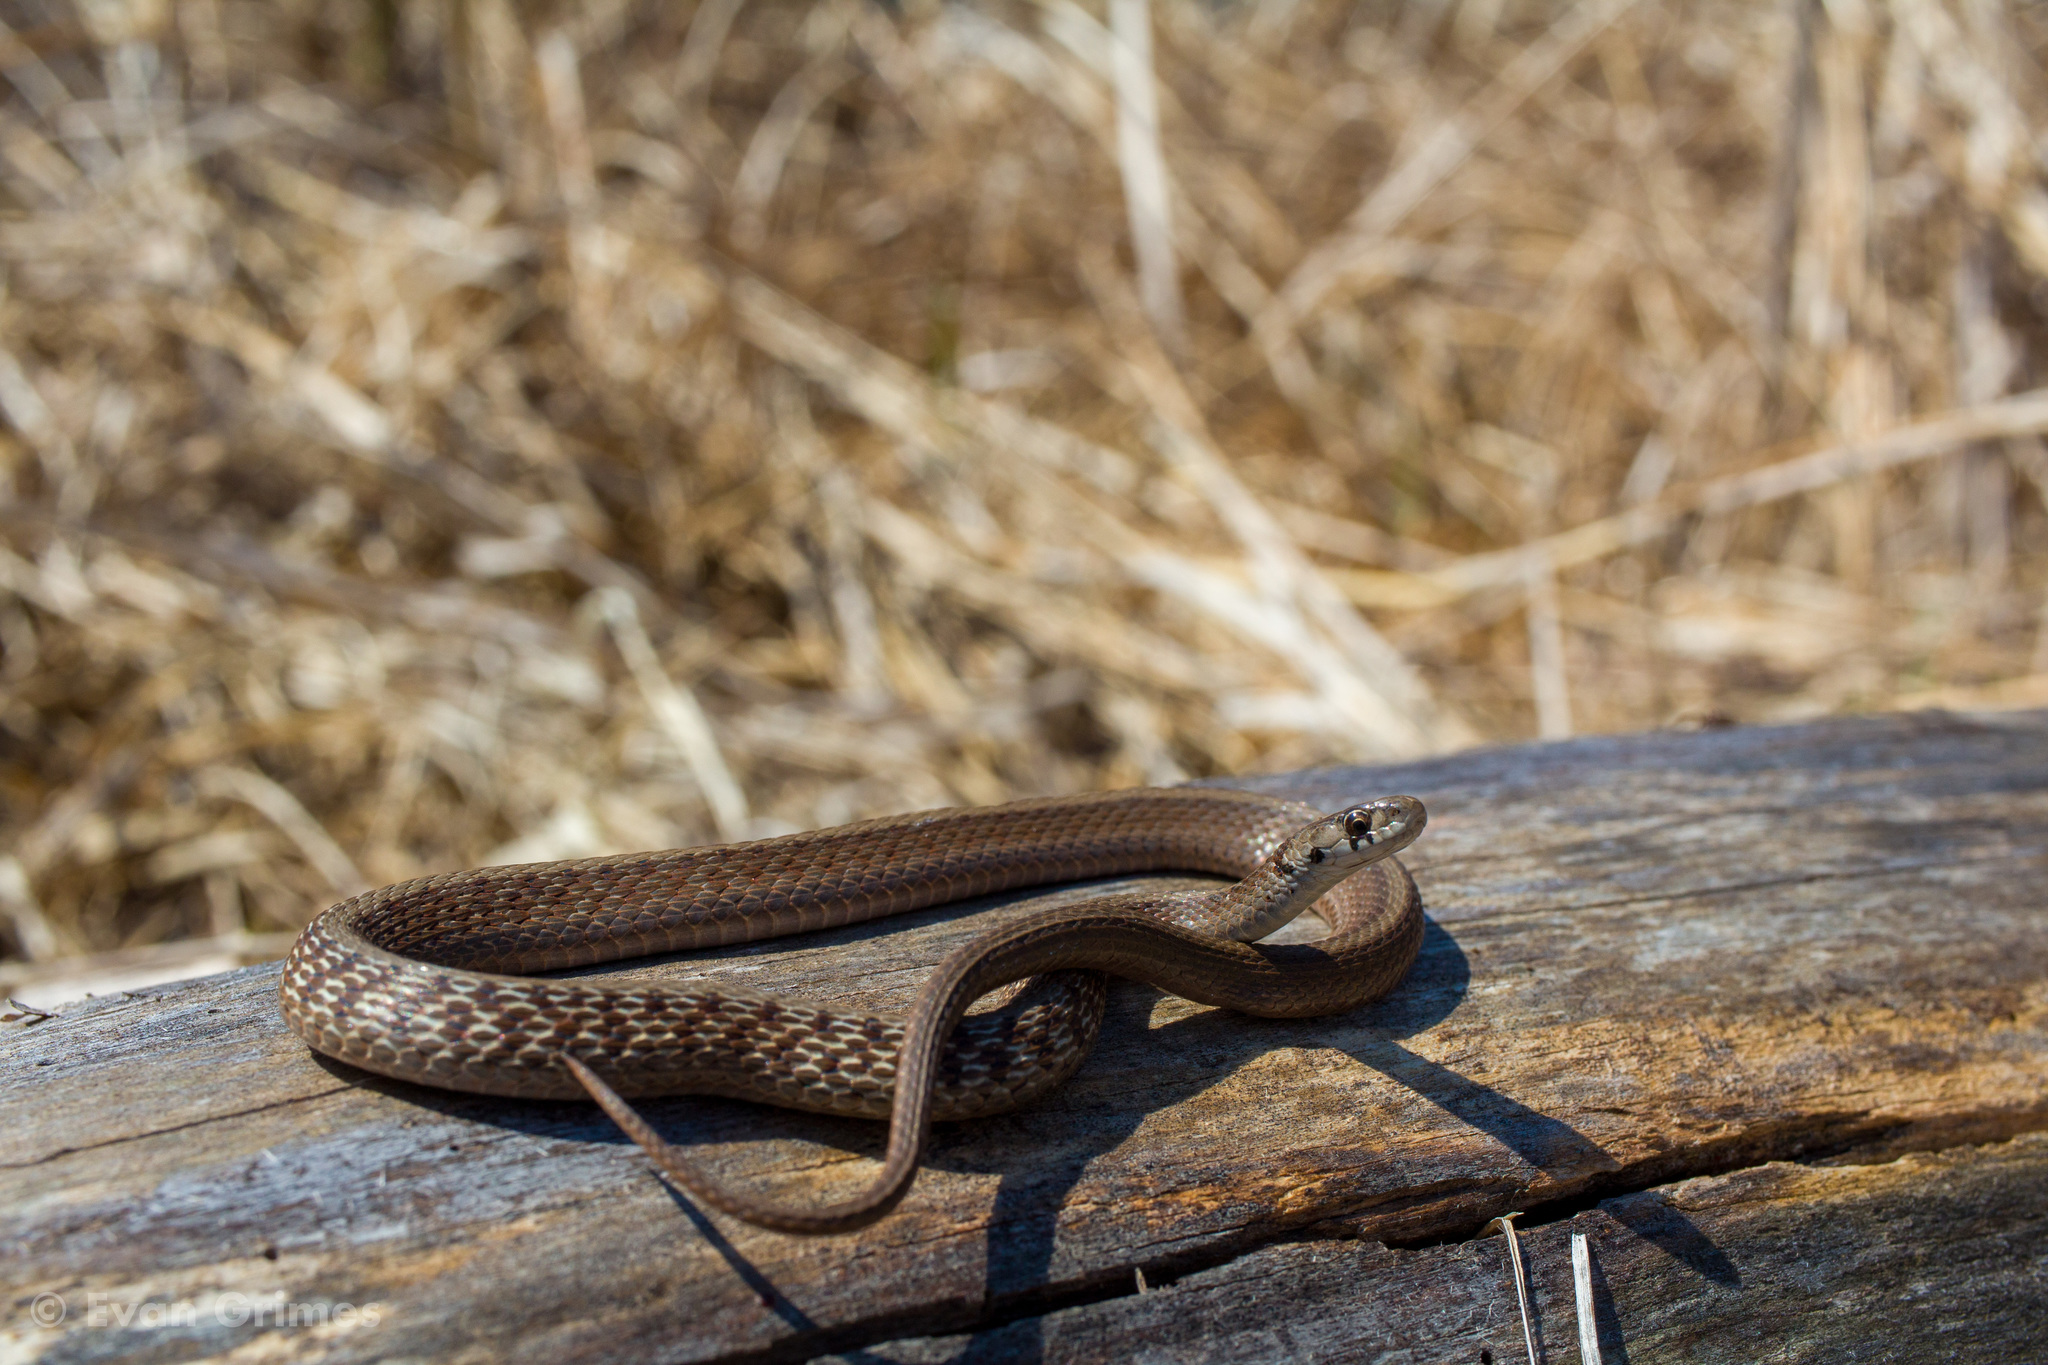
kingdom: Animalia
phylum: Chordata
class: Squamata
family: Colubridae
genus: Storeria
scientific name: Storeria dekayi
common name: (dekay’s) brown snake
